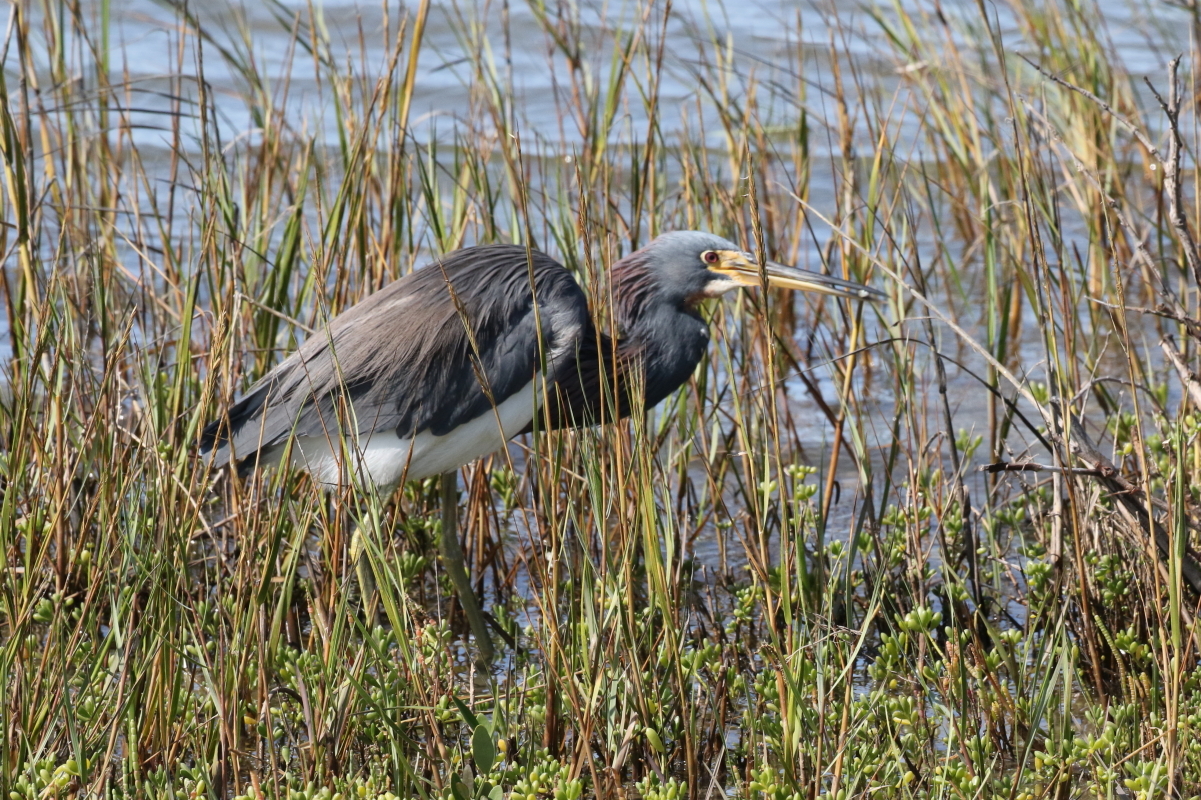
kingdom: Animalia
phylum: Chordata
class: Aves
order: Pelecaniformes
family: Ardeidae
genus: Egretta
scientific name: Egretta tricolor
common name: Tricolored heron
